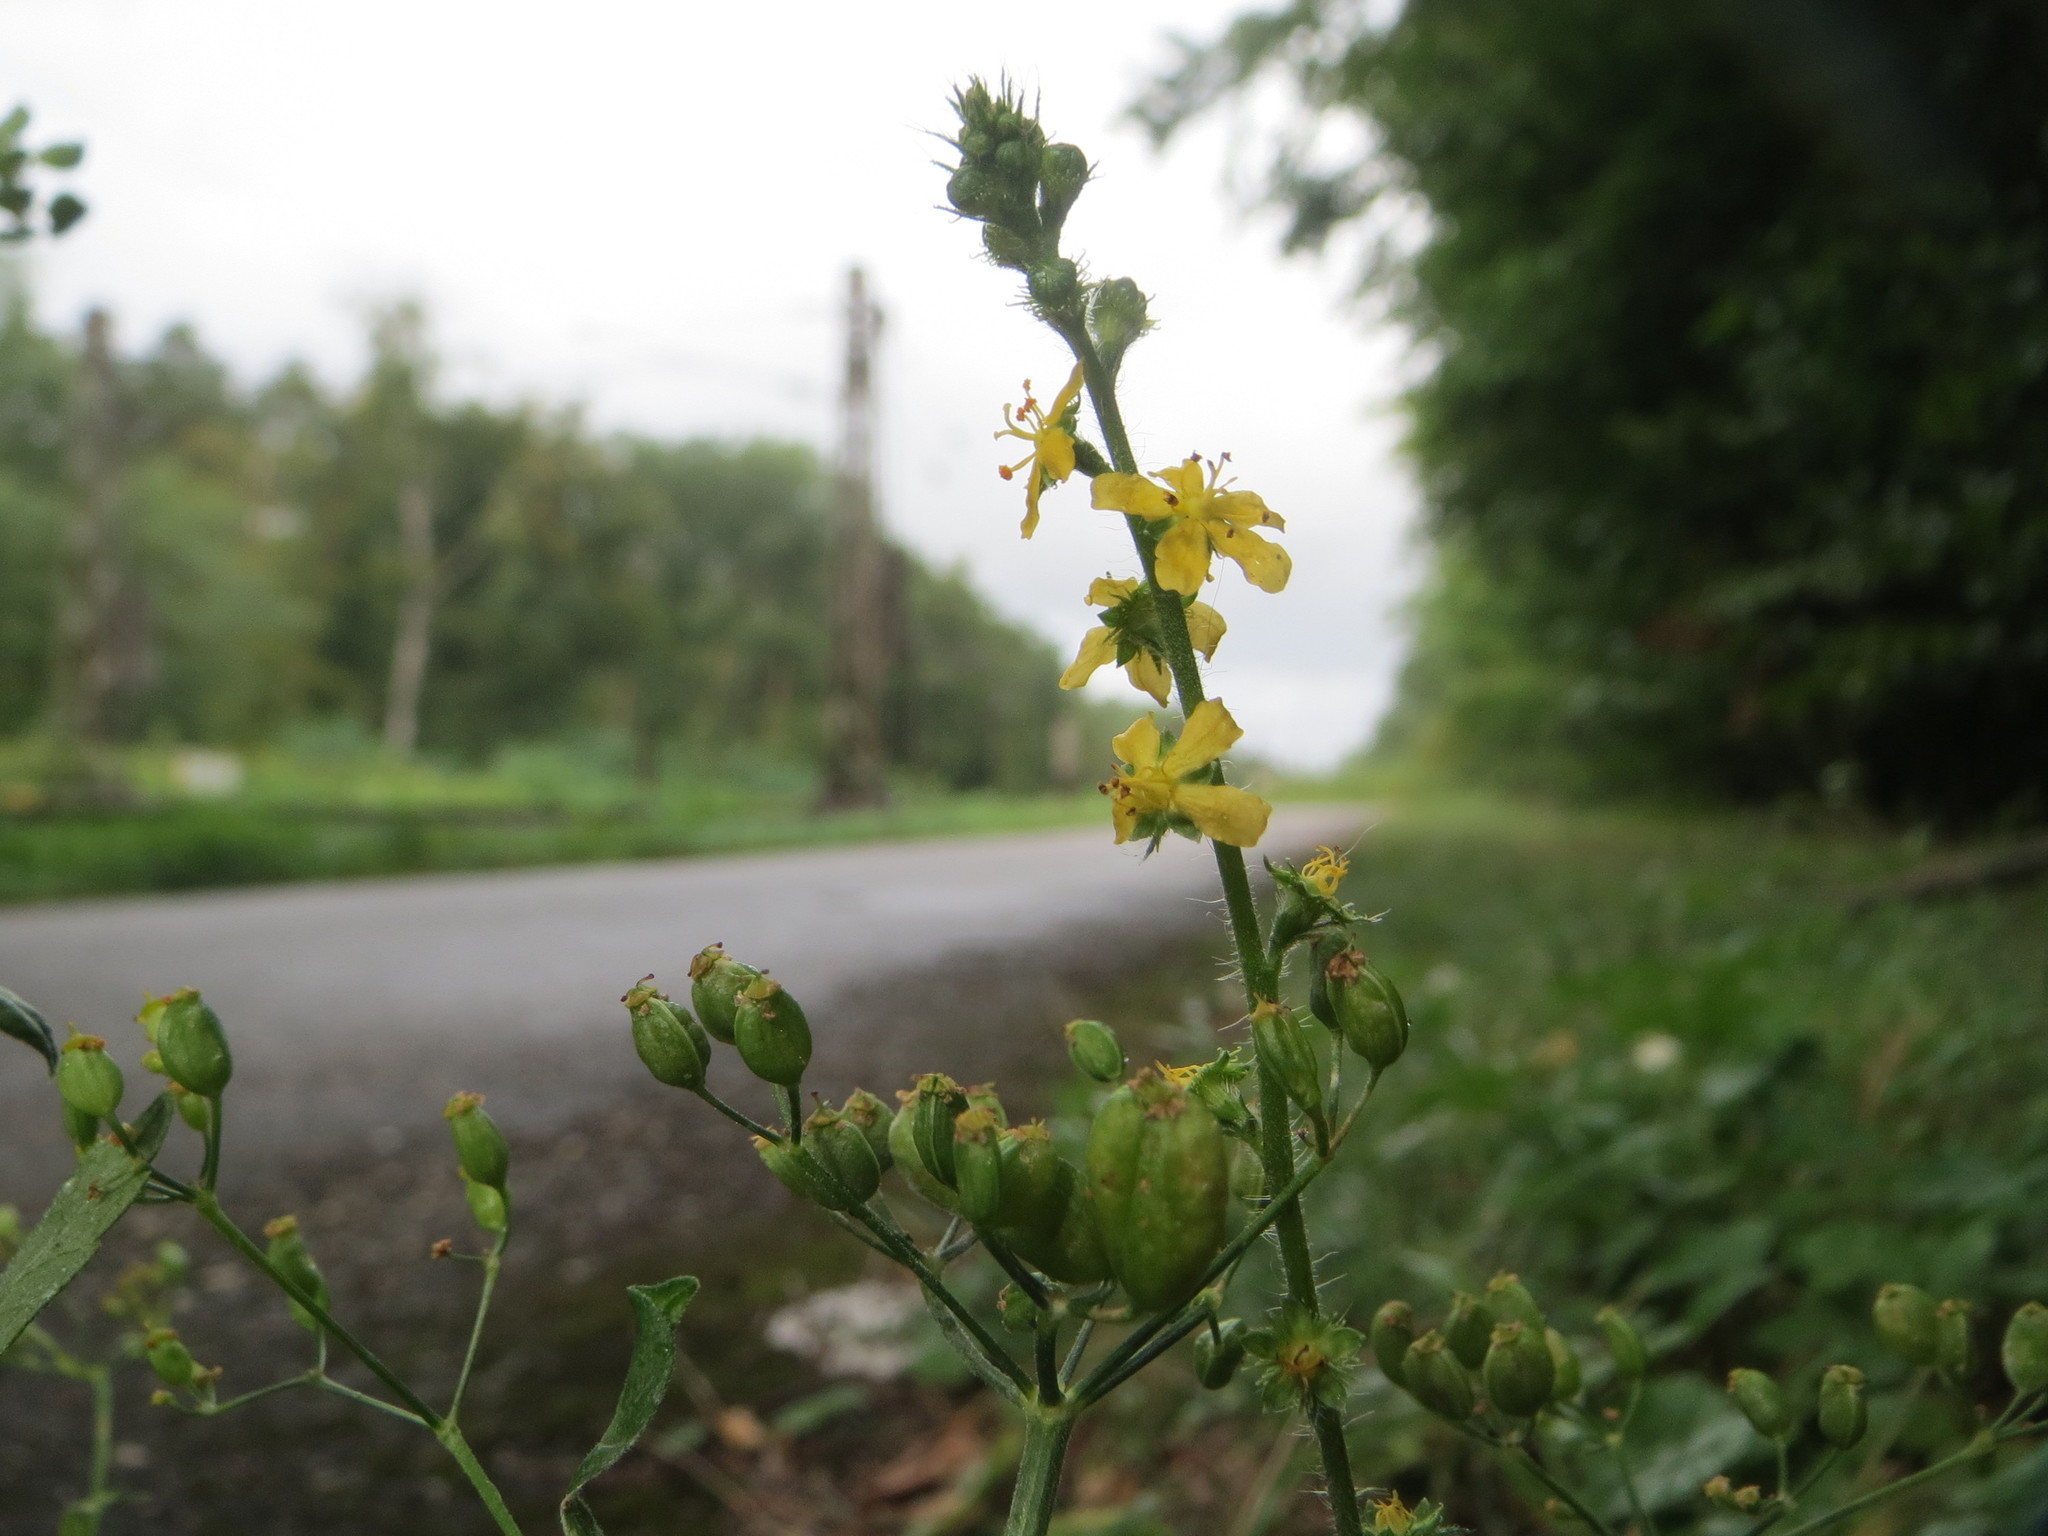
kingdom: Plantae
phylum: Tracheophyta
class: Magnoliopsida
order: Rosales
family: Rosaceae
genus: Agrimonia
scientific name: Agrimonia eupatoria
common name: Agrimony
